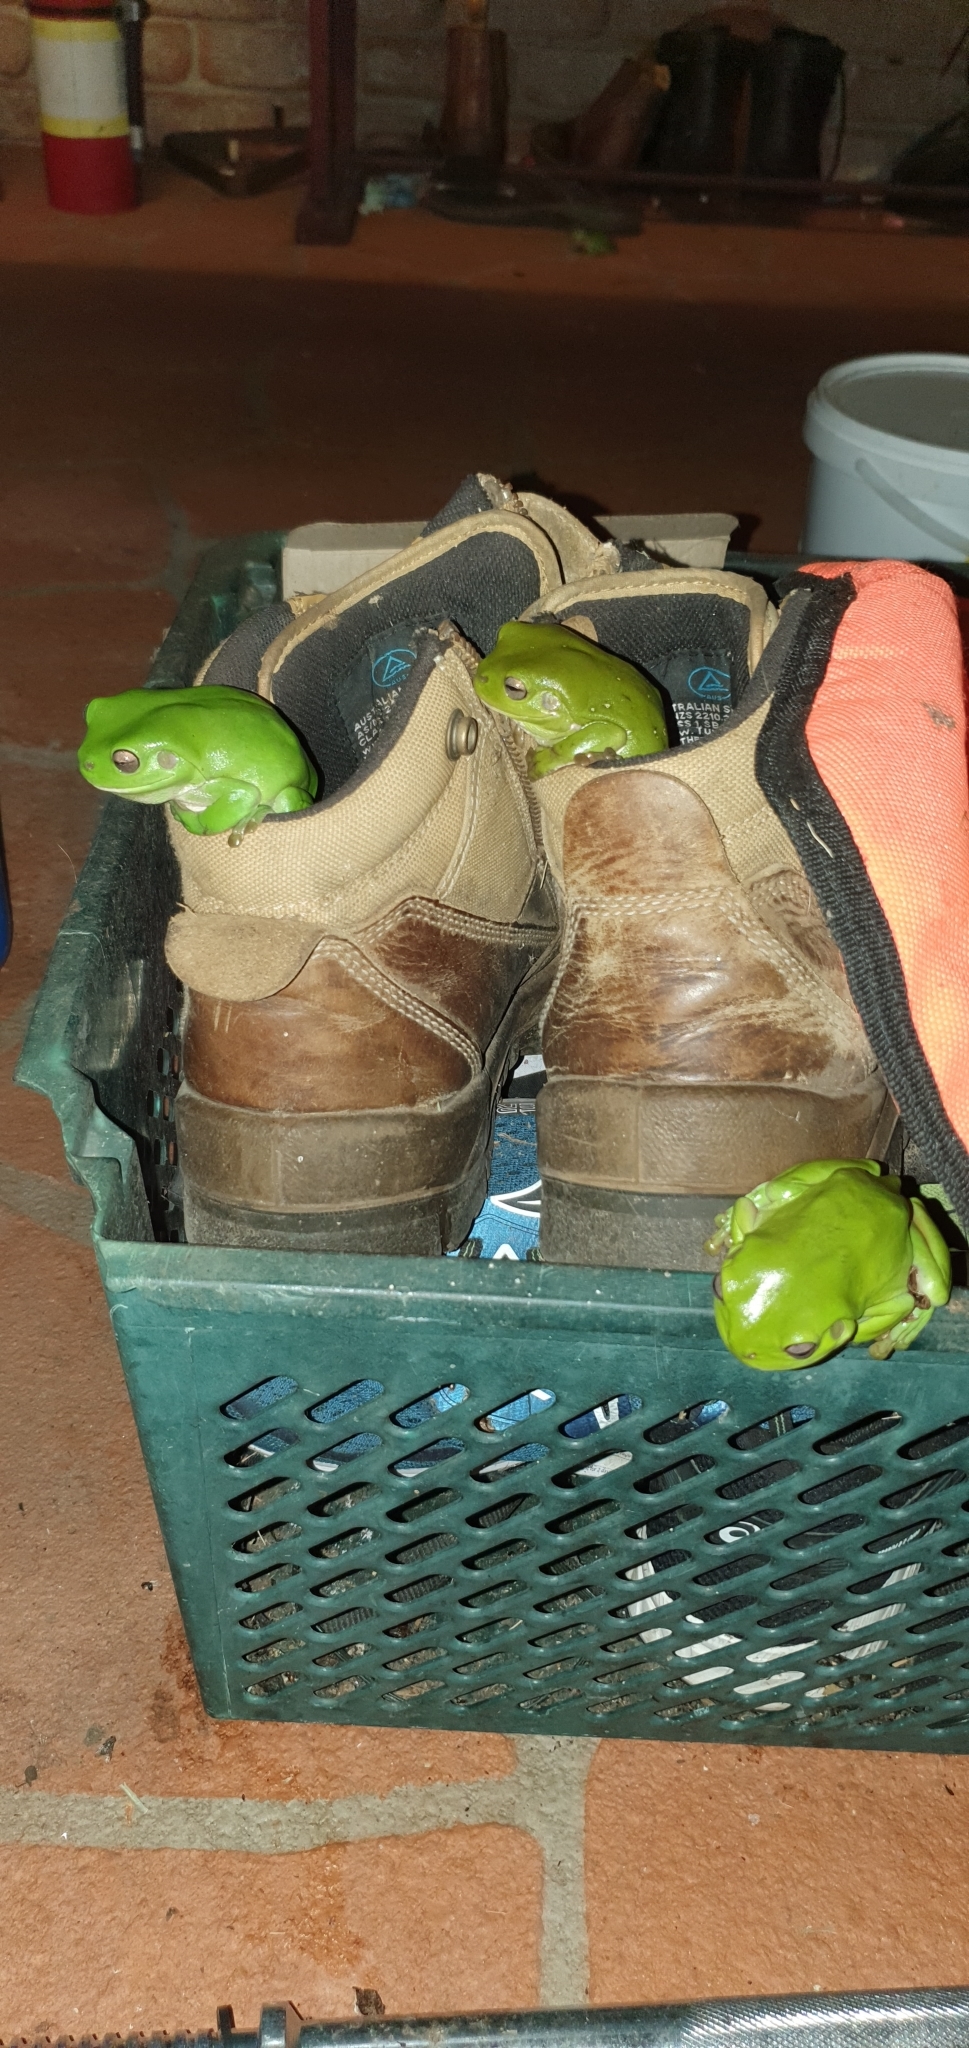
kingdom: Animalia
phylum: Chordata
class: Amphibia
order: Anura
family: Pelodryadidae
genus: Ranoidea
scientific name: Ranoidea caerulea
